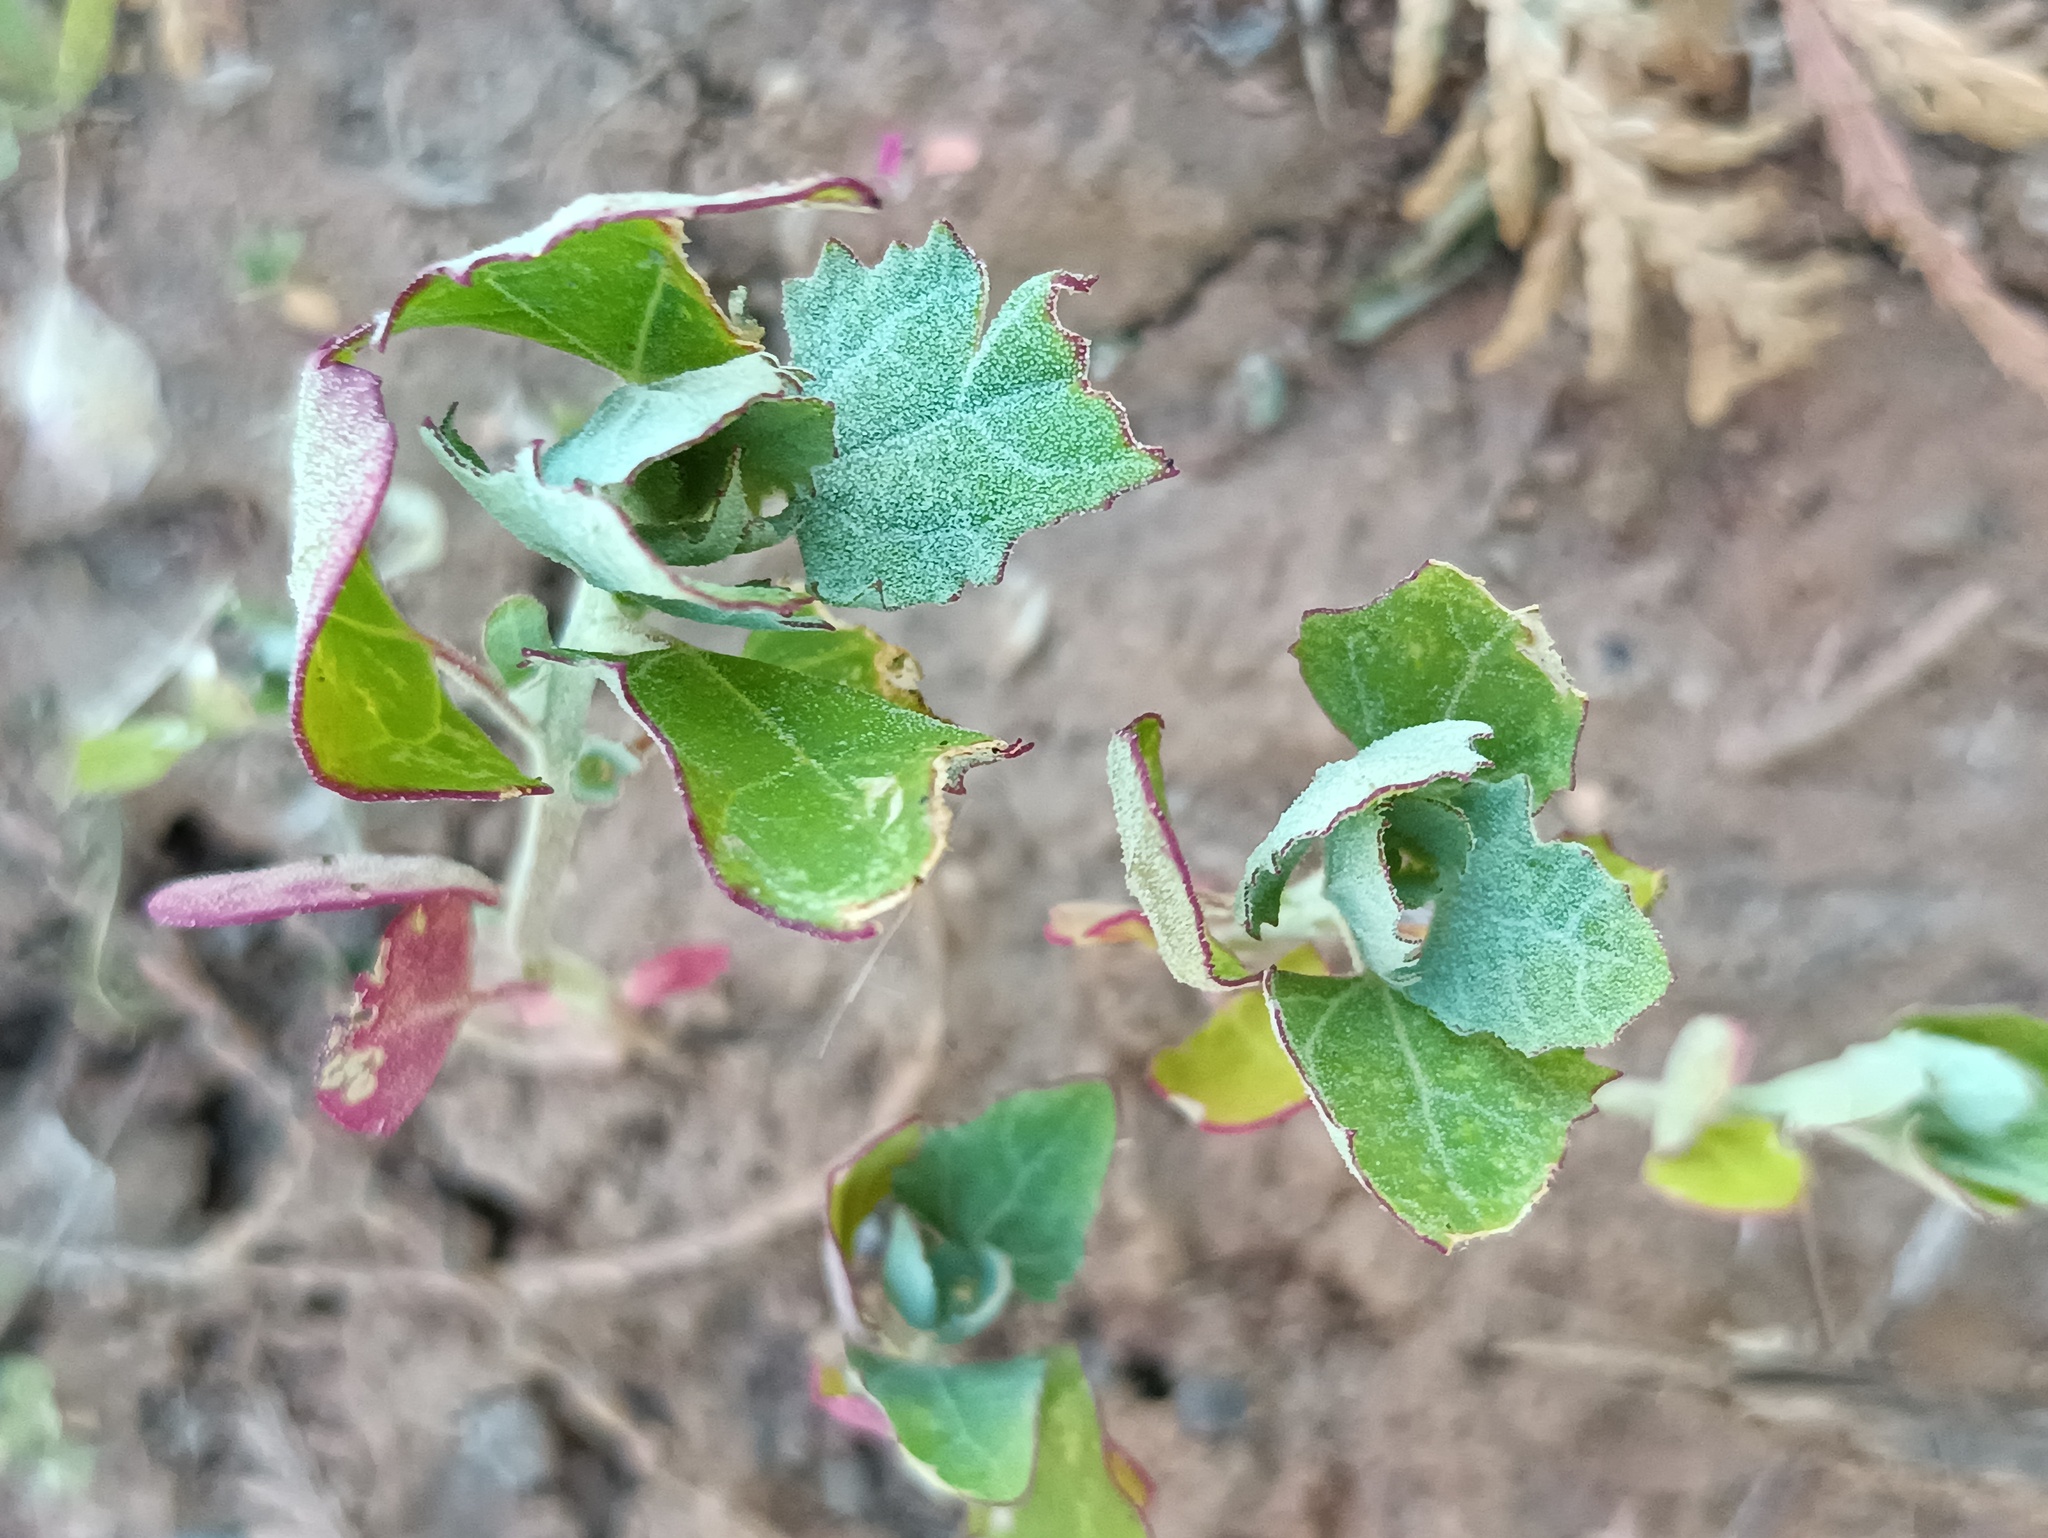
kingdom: Plantae
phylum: Tracheophyta
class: Magnoliopsida
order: Caryophyllales
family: Amaranthaceae
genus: Chenopodium
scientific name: Chenopodium album
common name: Fat-hen
